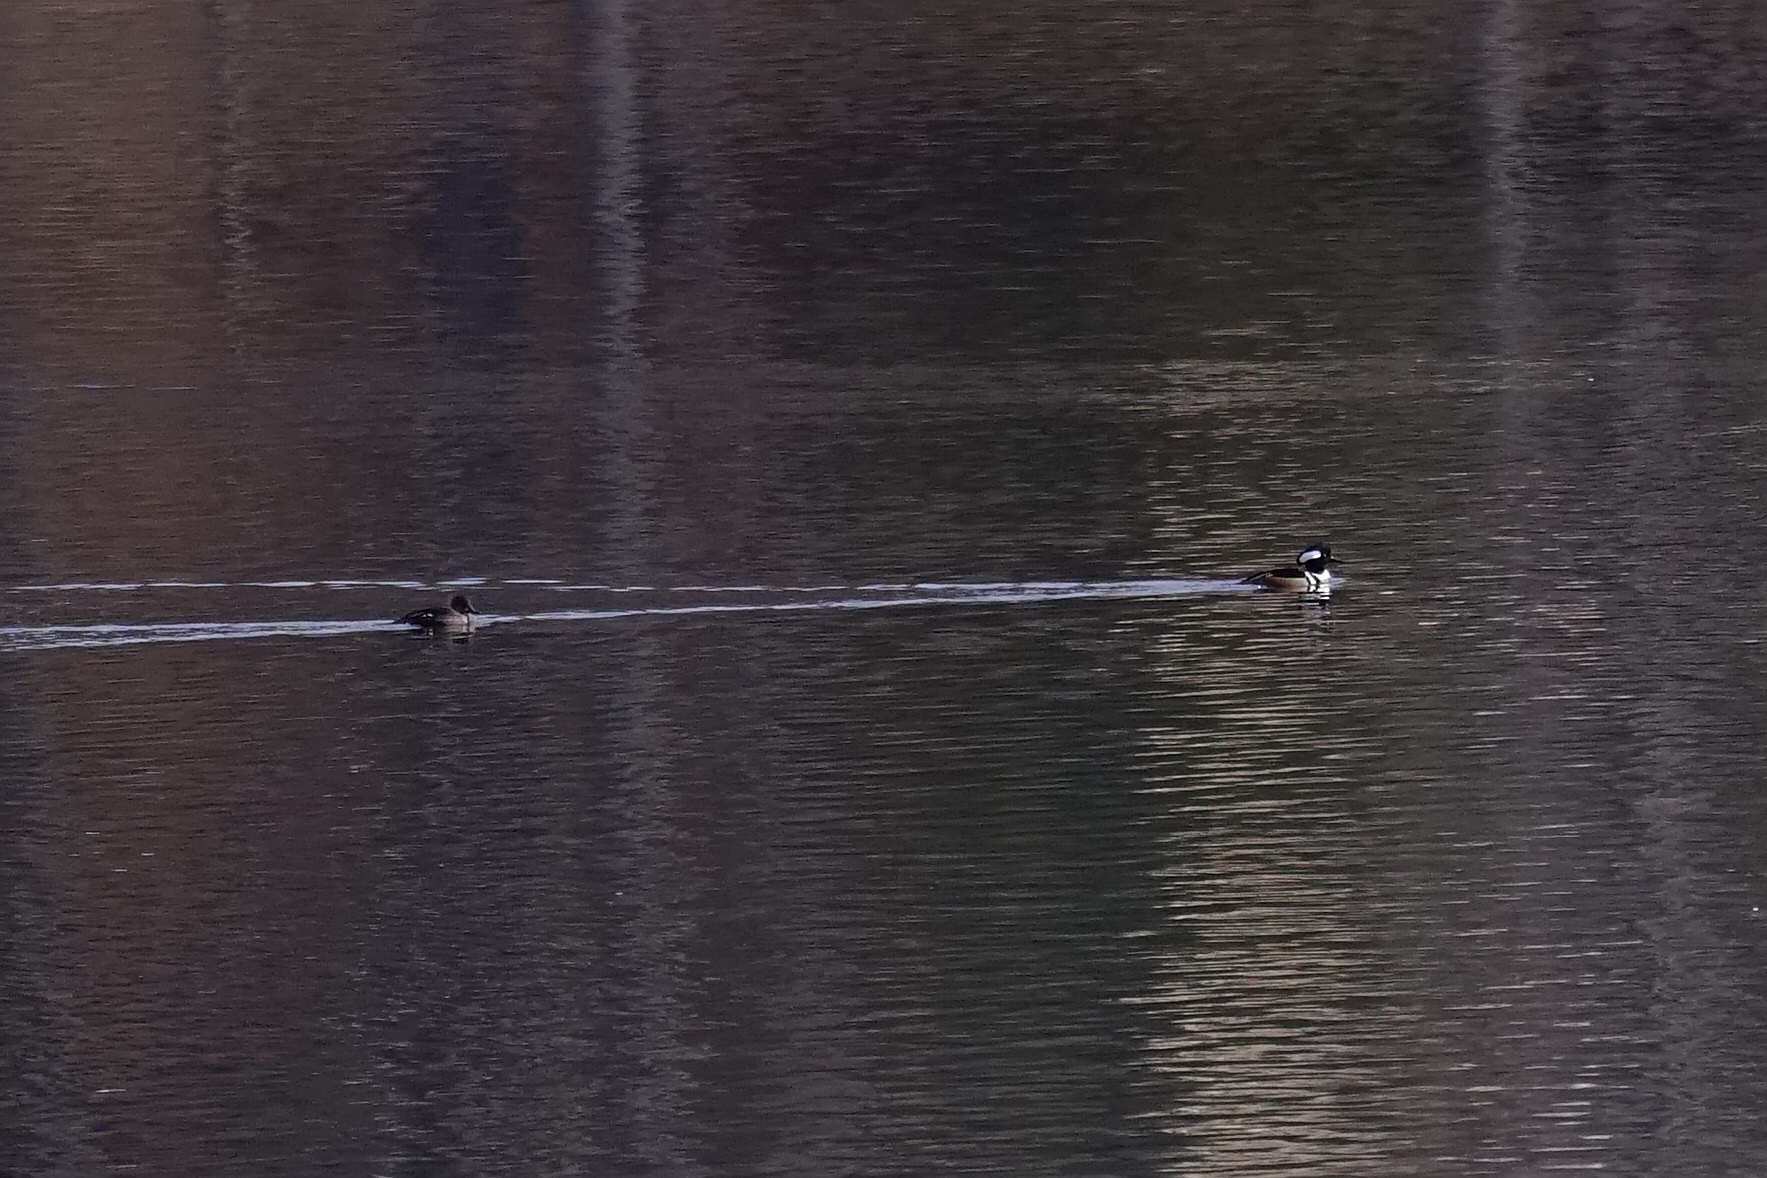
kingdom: Animalia
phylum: Chordata
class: Aves
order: Anseriformes
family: Anatidae
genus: Lophodytes
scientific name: Lophodytes cucullatus
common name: Hooded merganser
